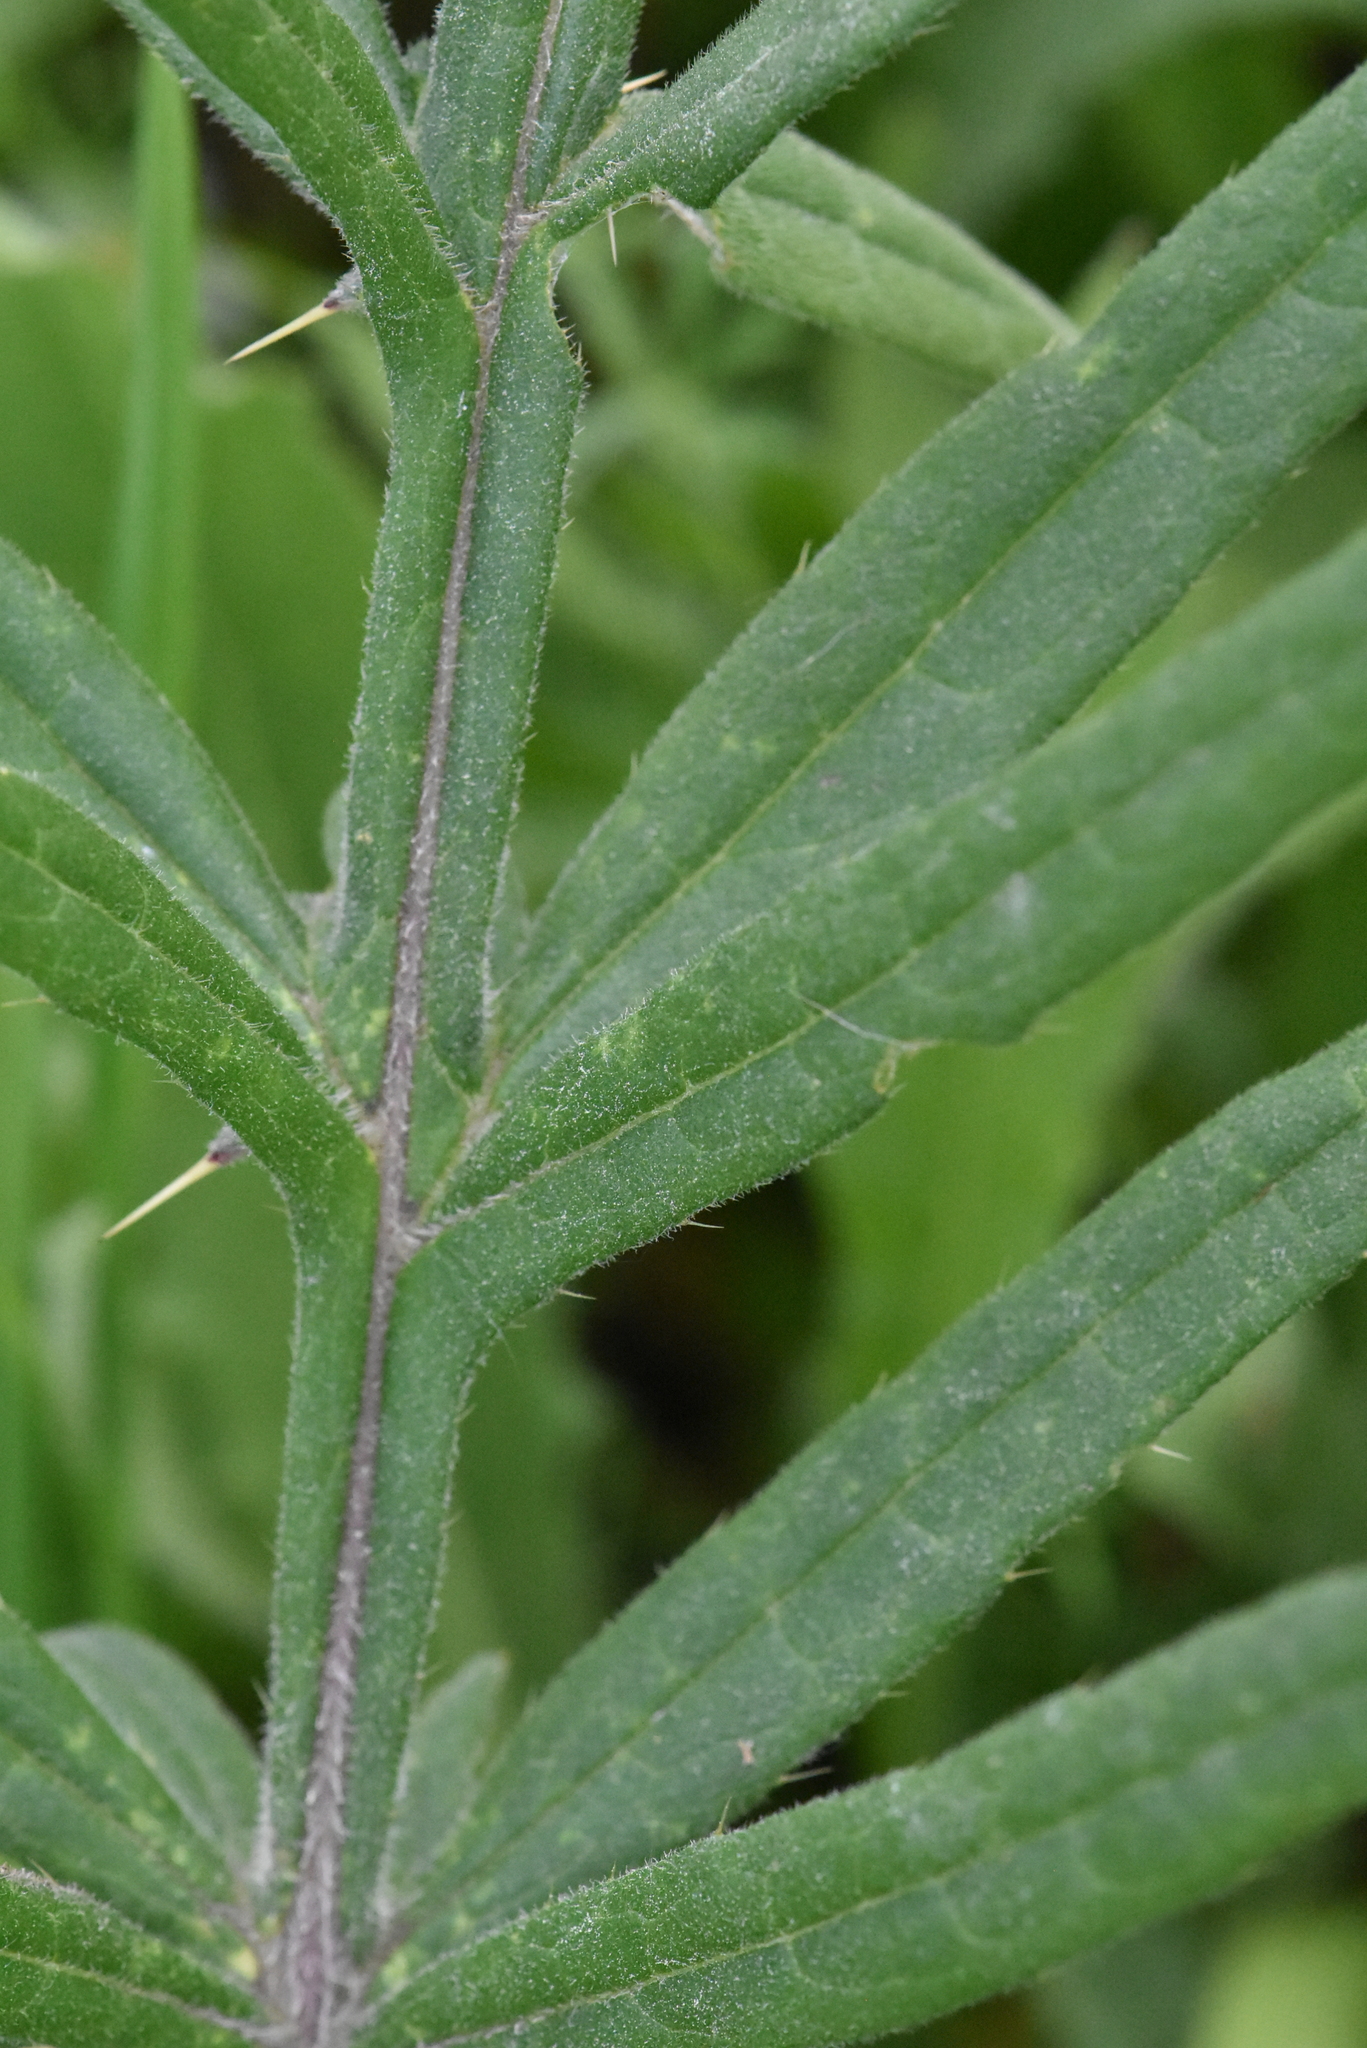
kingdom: Plantae
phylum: Tracheophyta
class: Magnoliopsida
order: Asterales
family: Asteraceae
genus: Lophiolepis
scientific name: Lophiolepis decussata
